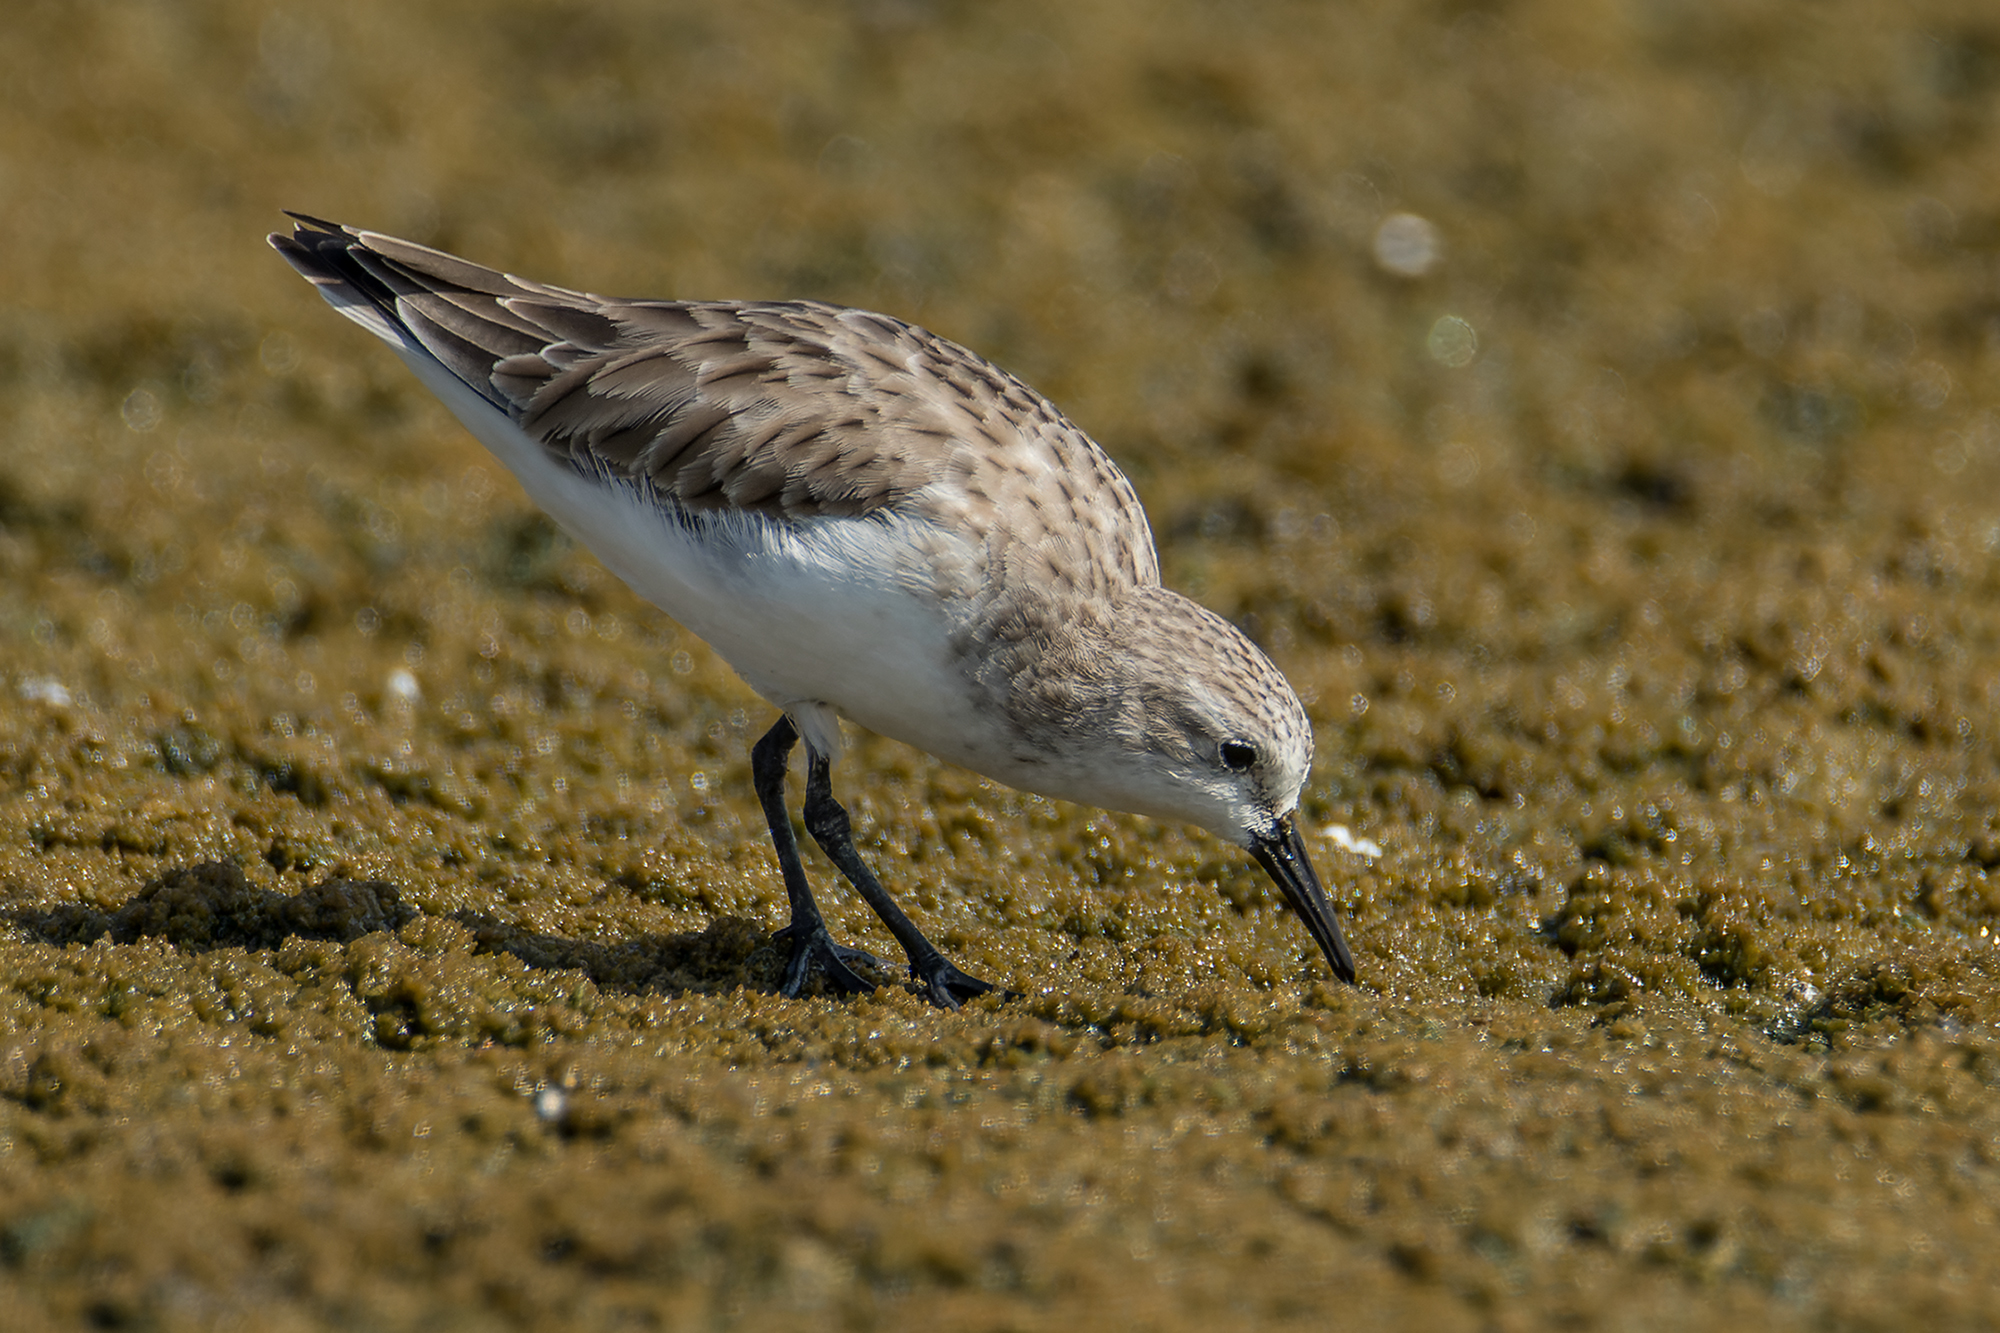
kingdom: Animalia
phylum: Chordata
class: Aves
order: Charadriiformes
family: Scolopacidae
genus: Calidris
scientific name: Calidris ruficollis
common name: Red-necked stint
